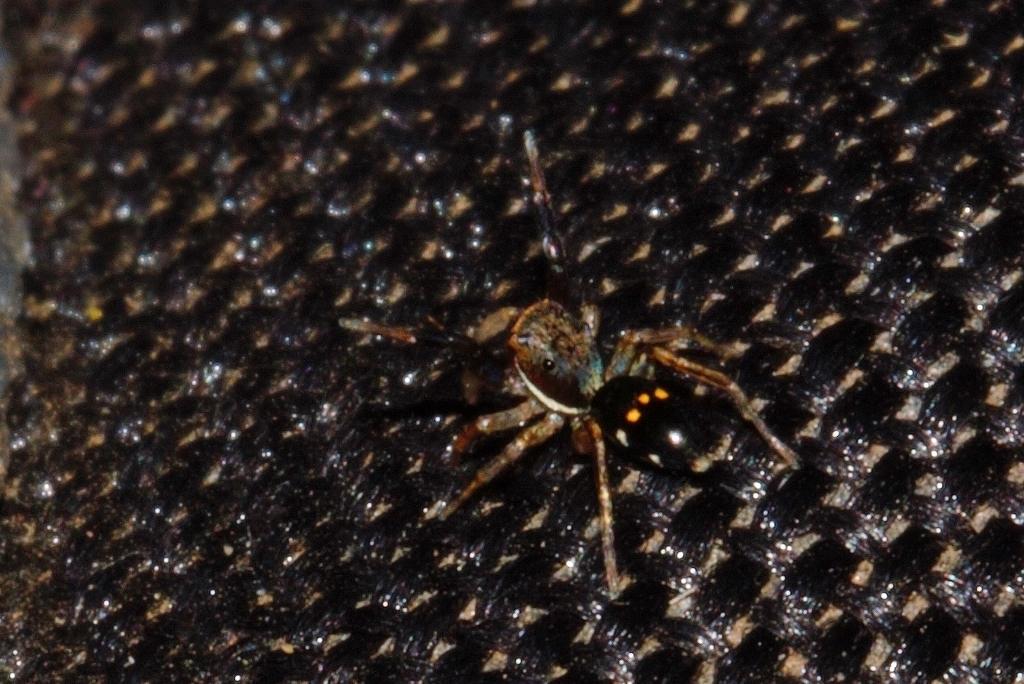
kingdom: Animalia
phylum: Arthropoda
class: Arachnida
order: Araneae
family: Salticidae
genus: Natta
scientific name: Natta horizontalis
